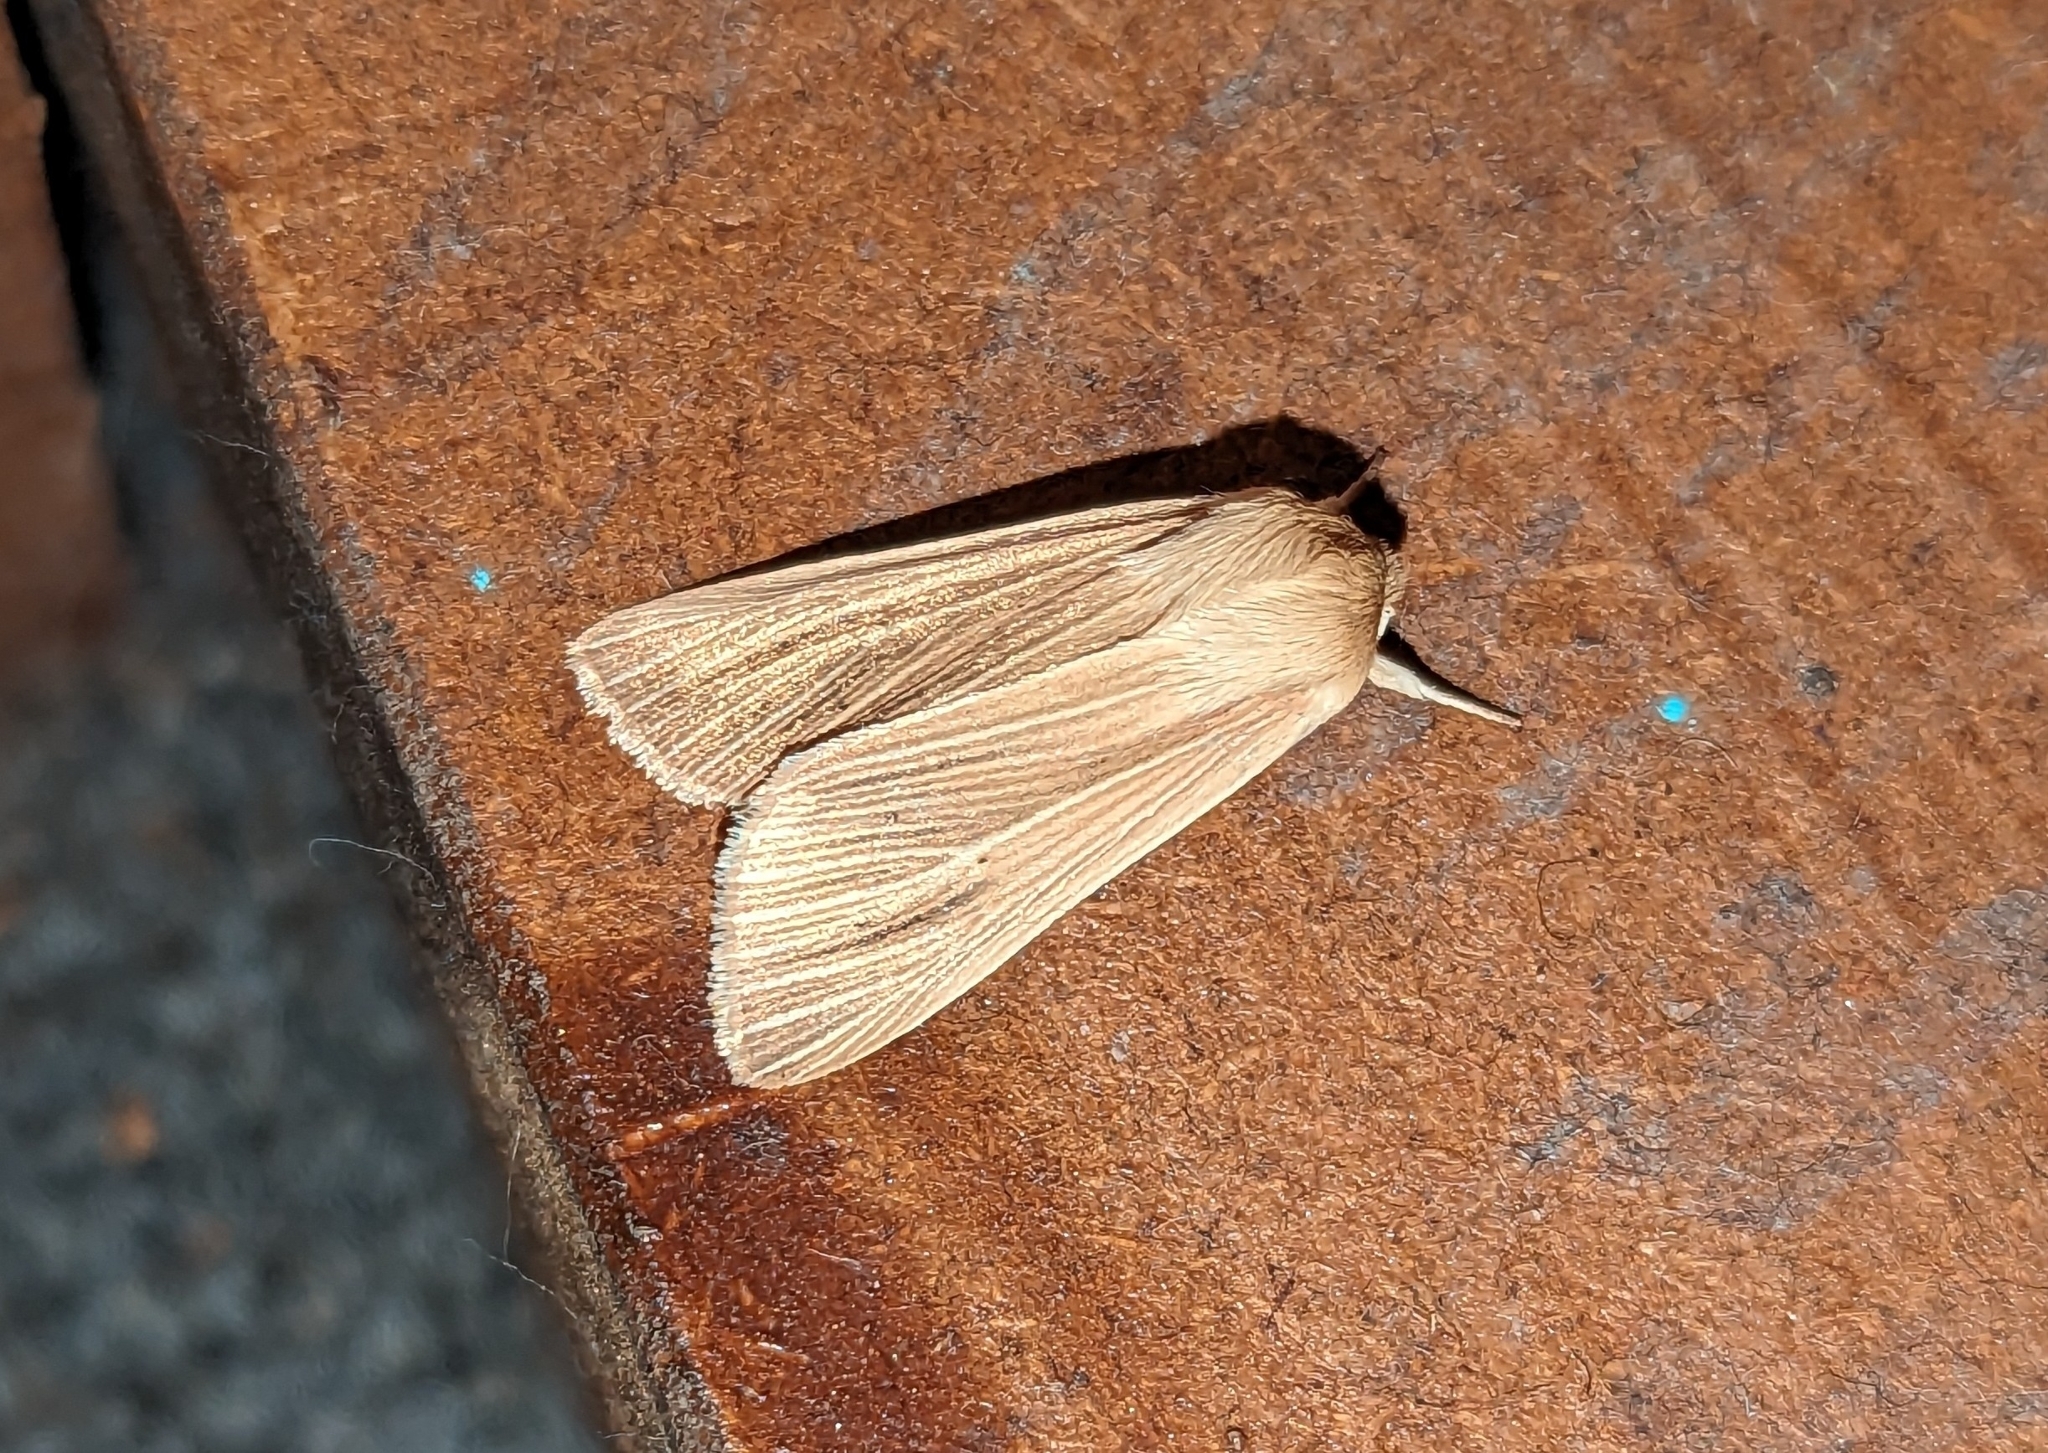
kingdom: Animalia
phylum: Arthropoda
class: Insecta
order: Lepidoptera
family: Noctuidae
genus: Mythimna
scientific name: Mythimna pallens
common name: Common wainscot
